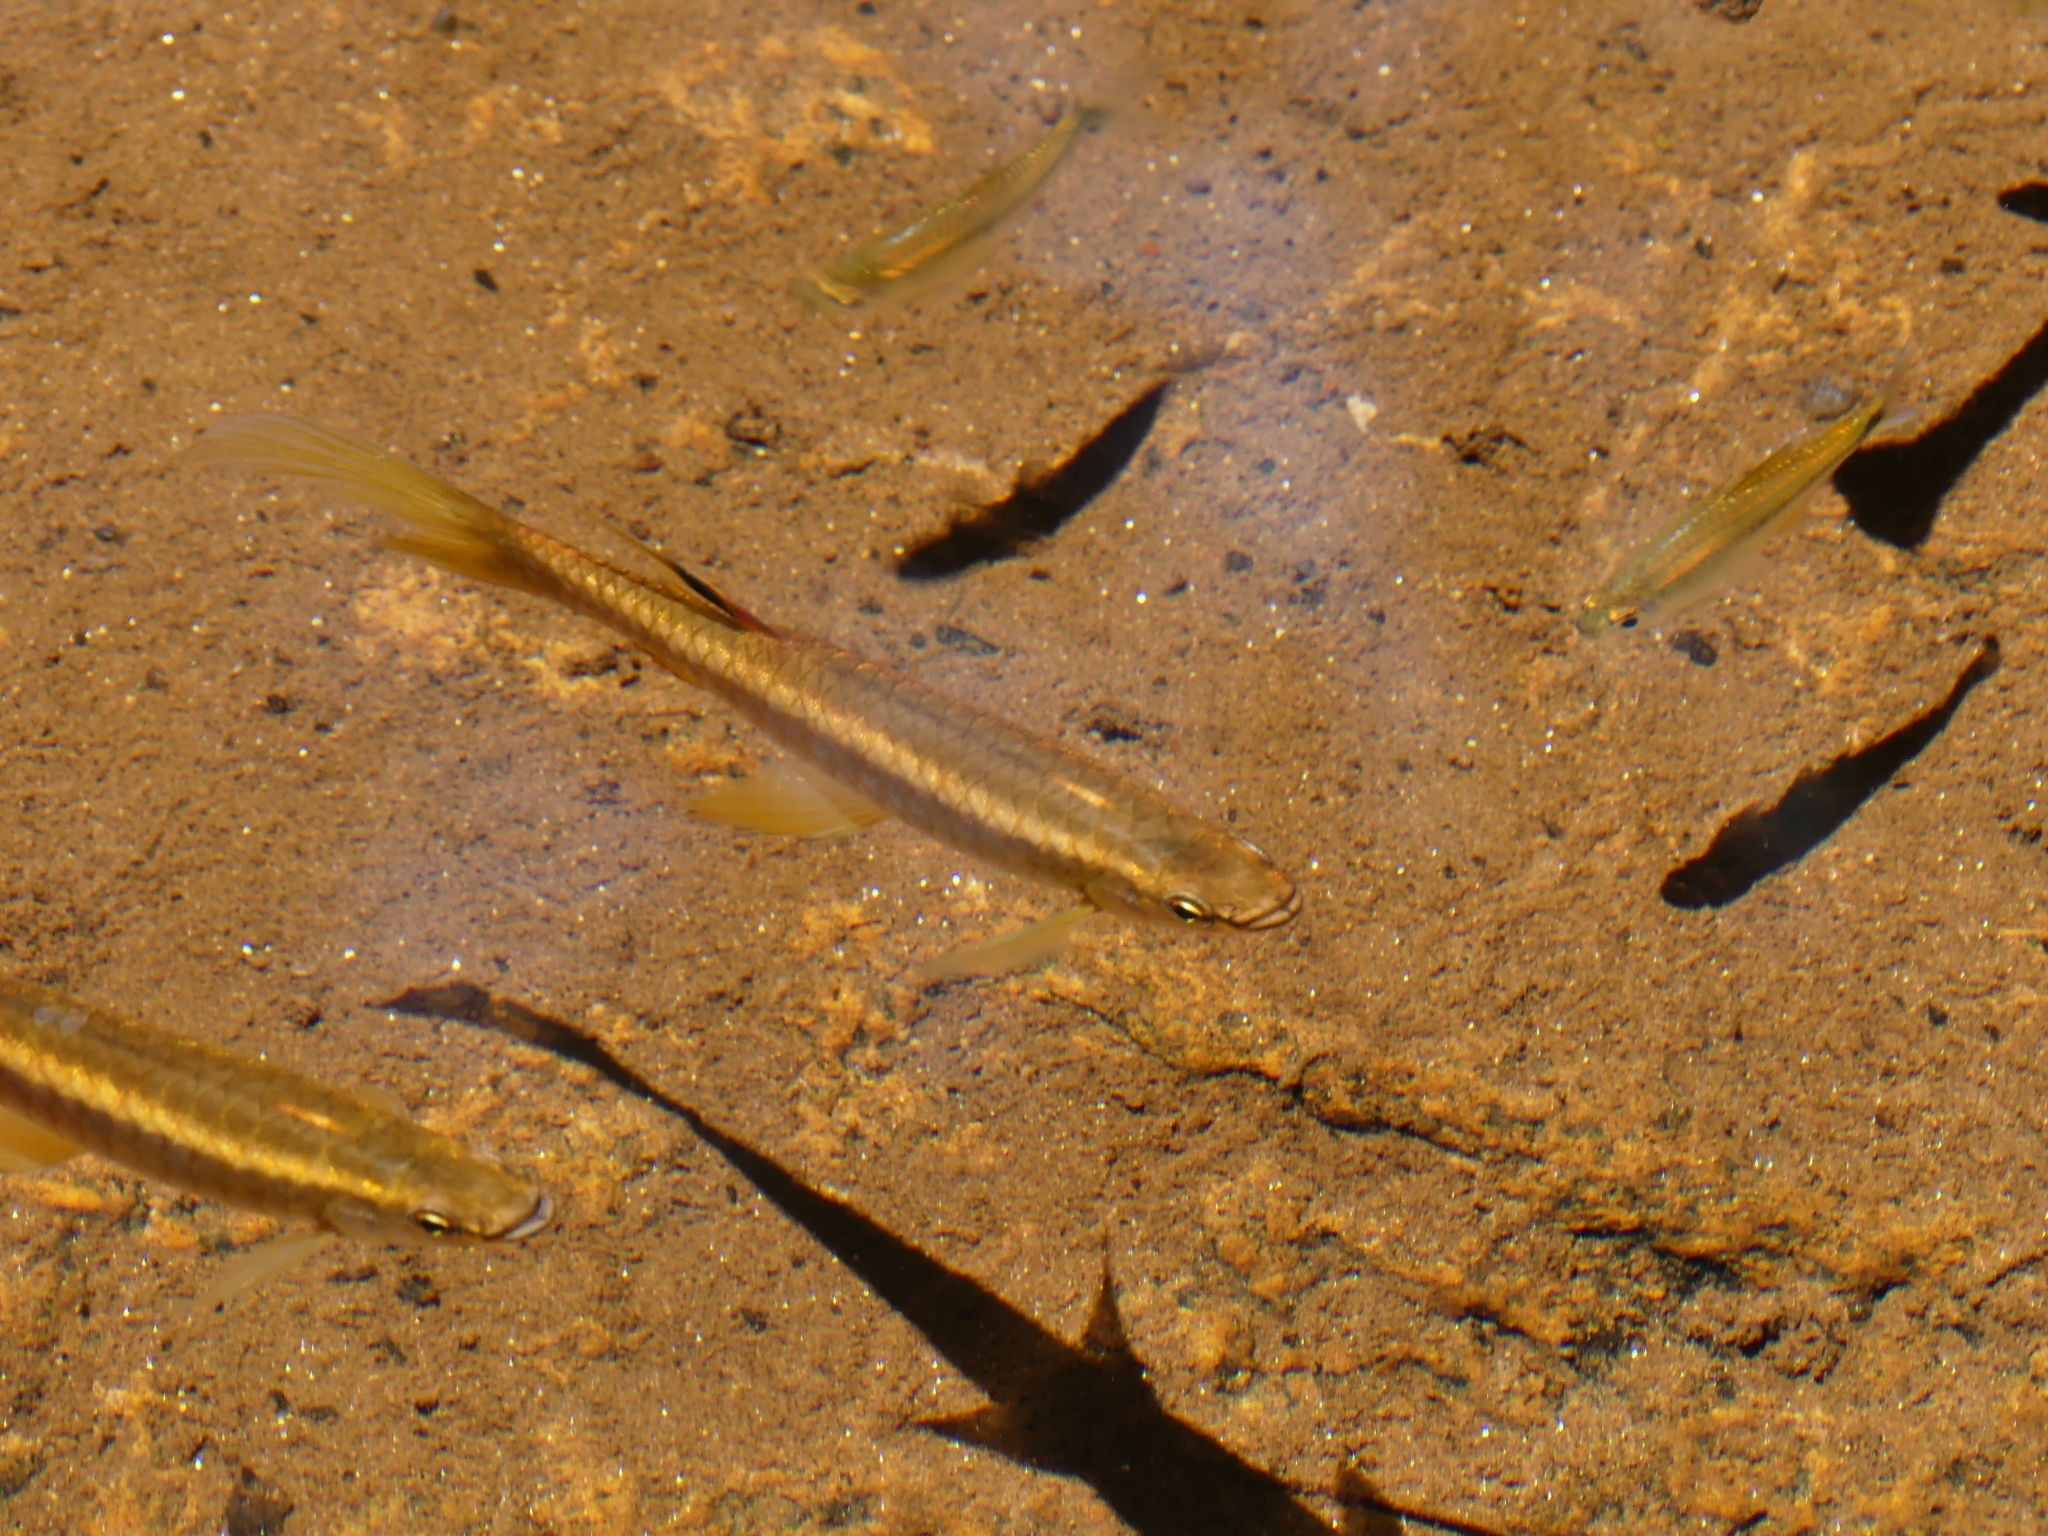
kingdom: Animalia
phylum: Chordata
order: Characiformes
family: Lebiasinidae
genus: Pyrrhulina
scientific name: Pyrrhulina filamentosa
